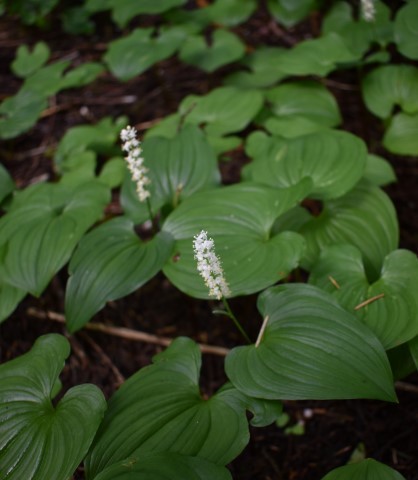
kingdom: Plantae
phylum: Tracheophyta
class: Liliopsida
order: Asparagales
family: Asparagaceae
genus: Maianthemum
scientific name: Maianthemum dilatatum
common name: False lily-of-the-valley
